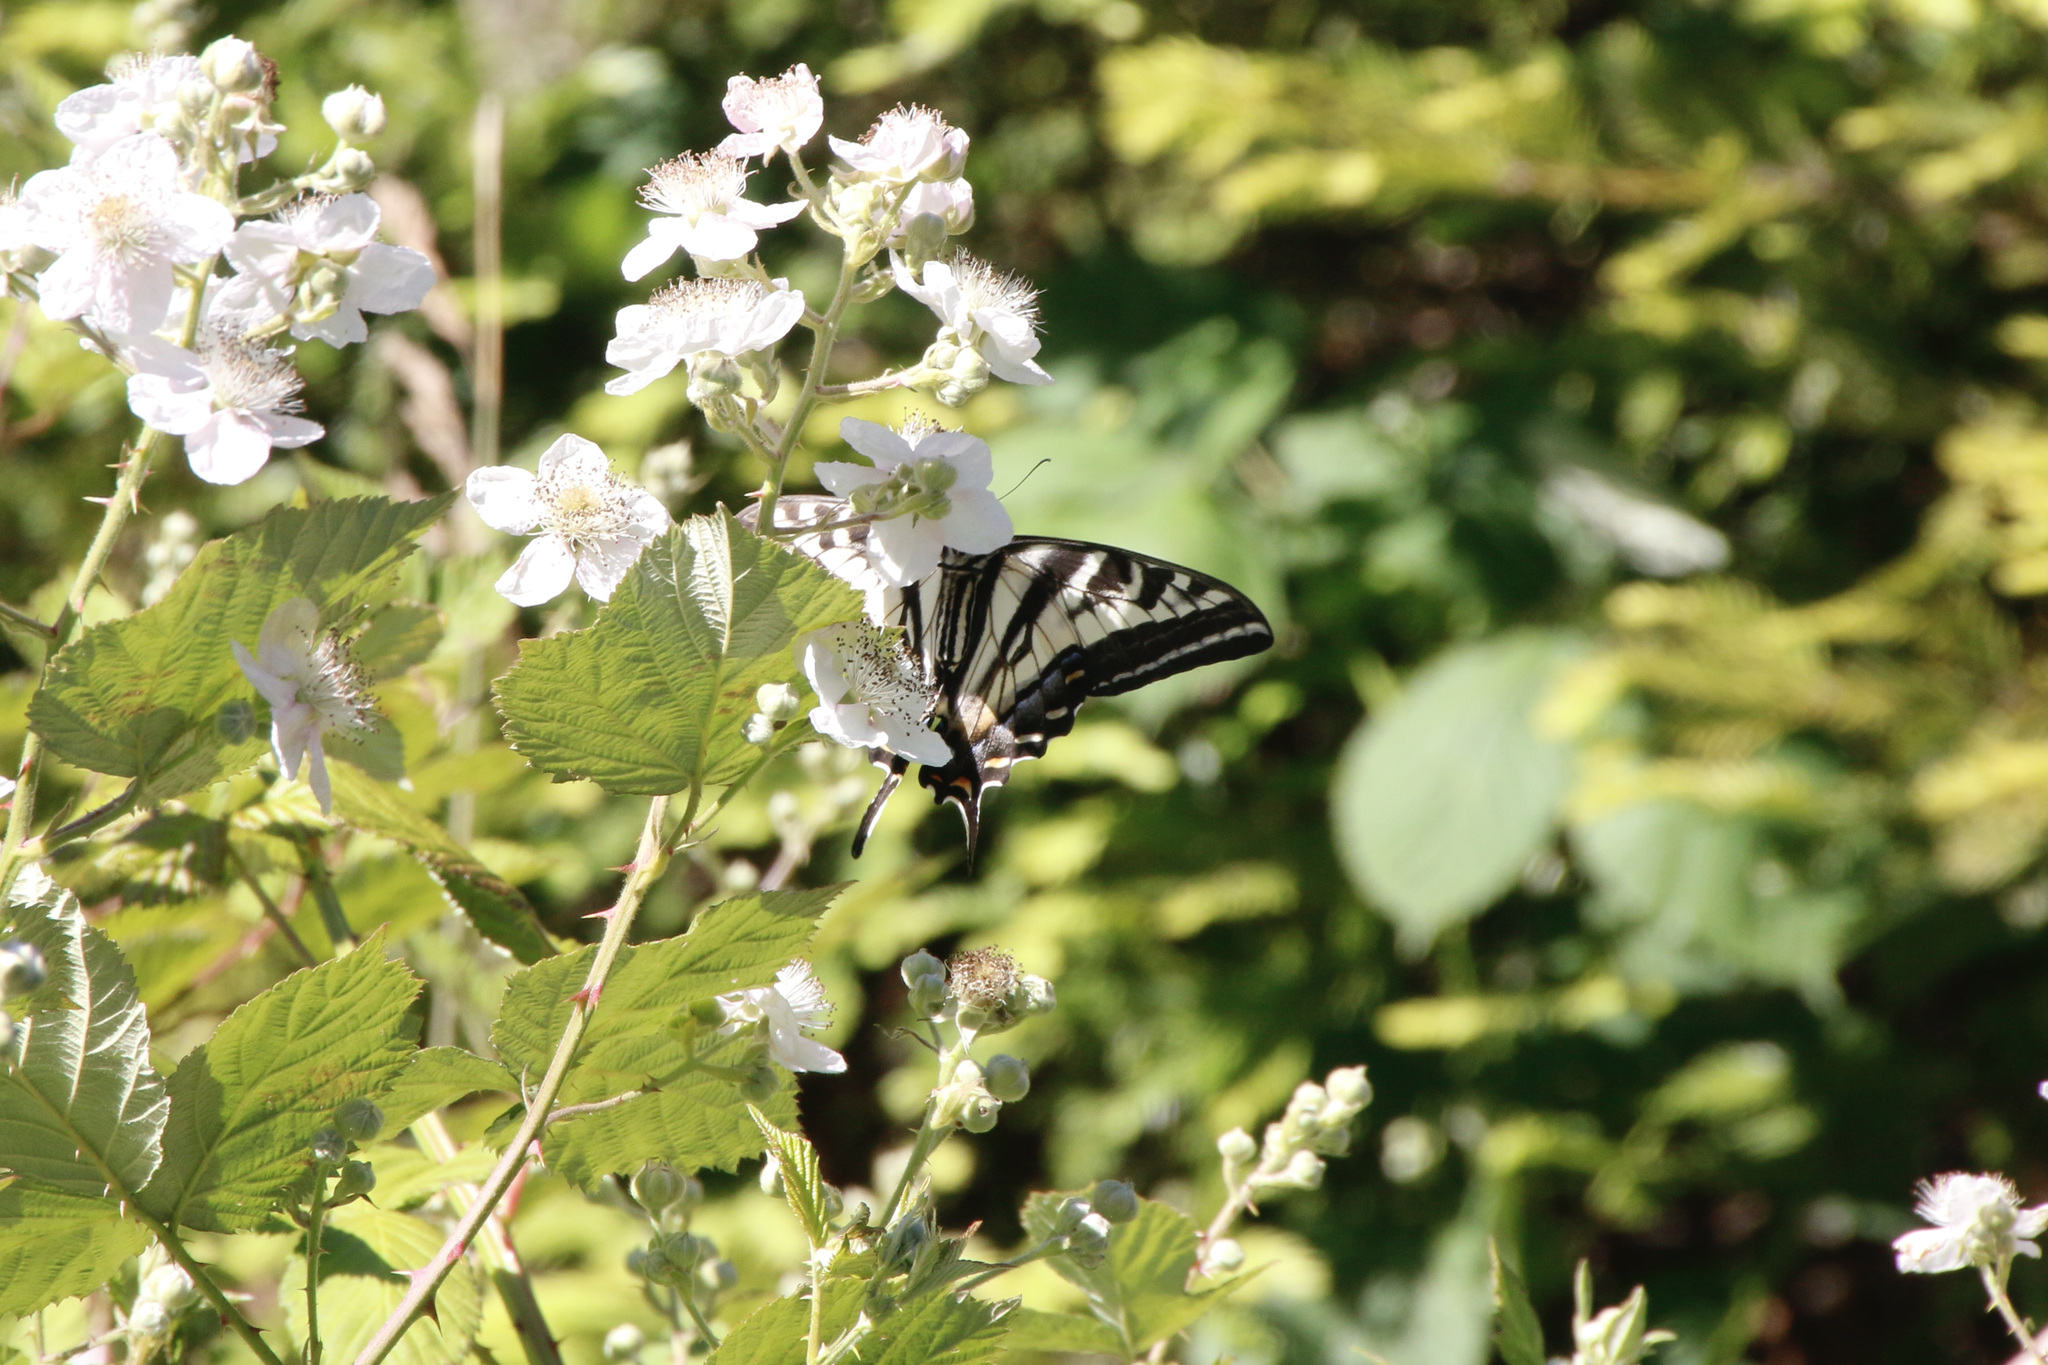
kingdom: Animalia
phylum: Arthropoda
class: Insecta
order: Lepidoptera
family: Papilionidae
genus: Papilio
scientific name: Papilio eurymedon
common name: Pale tiger swallowtail
